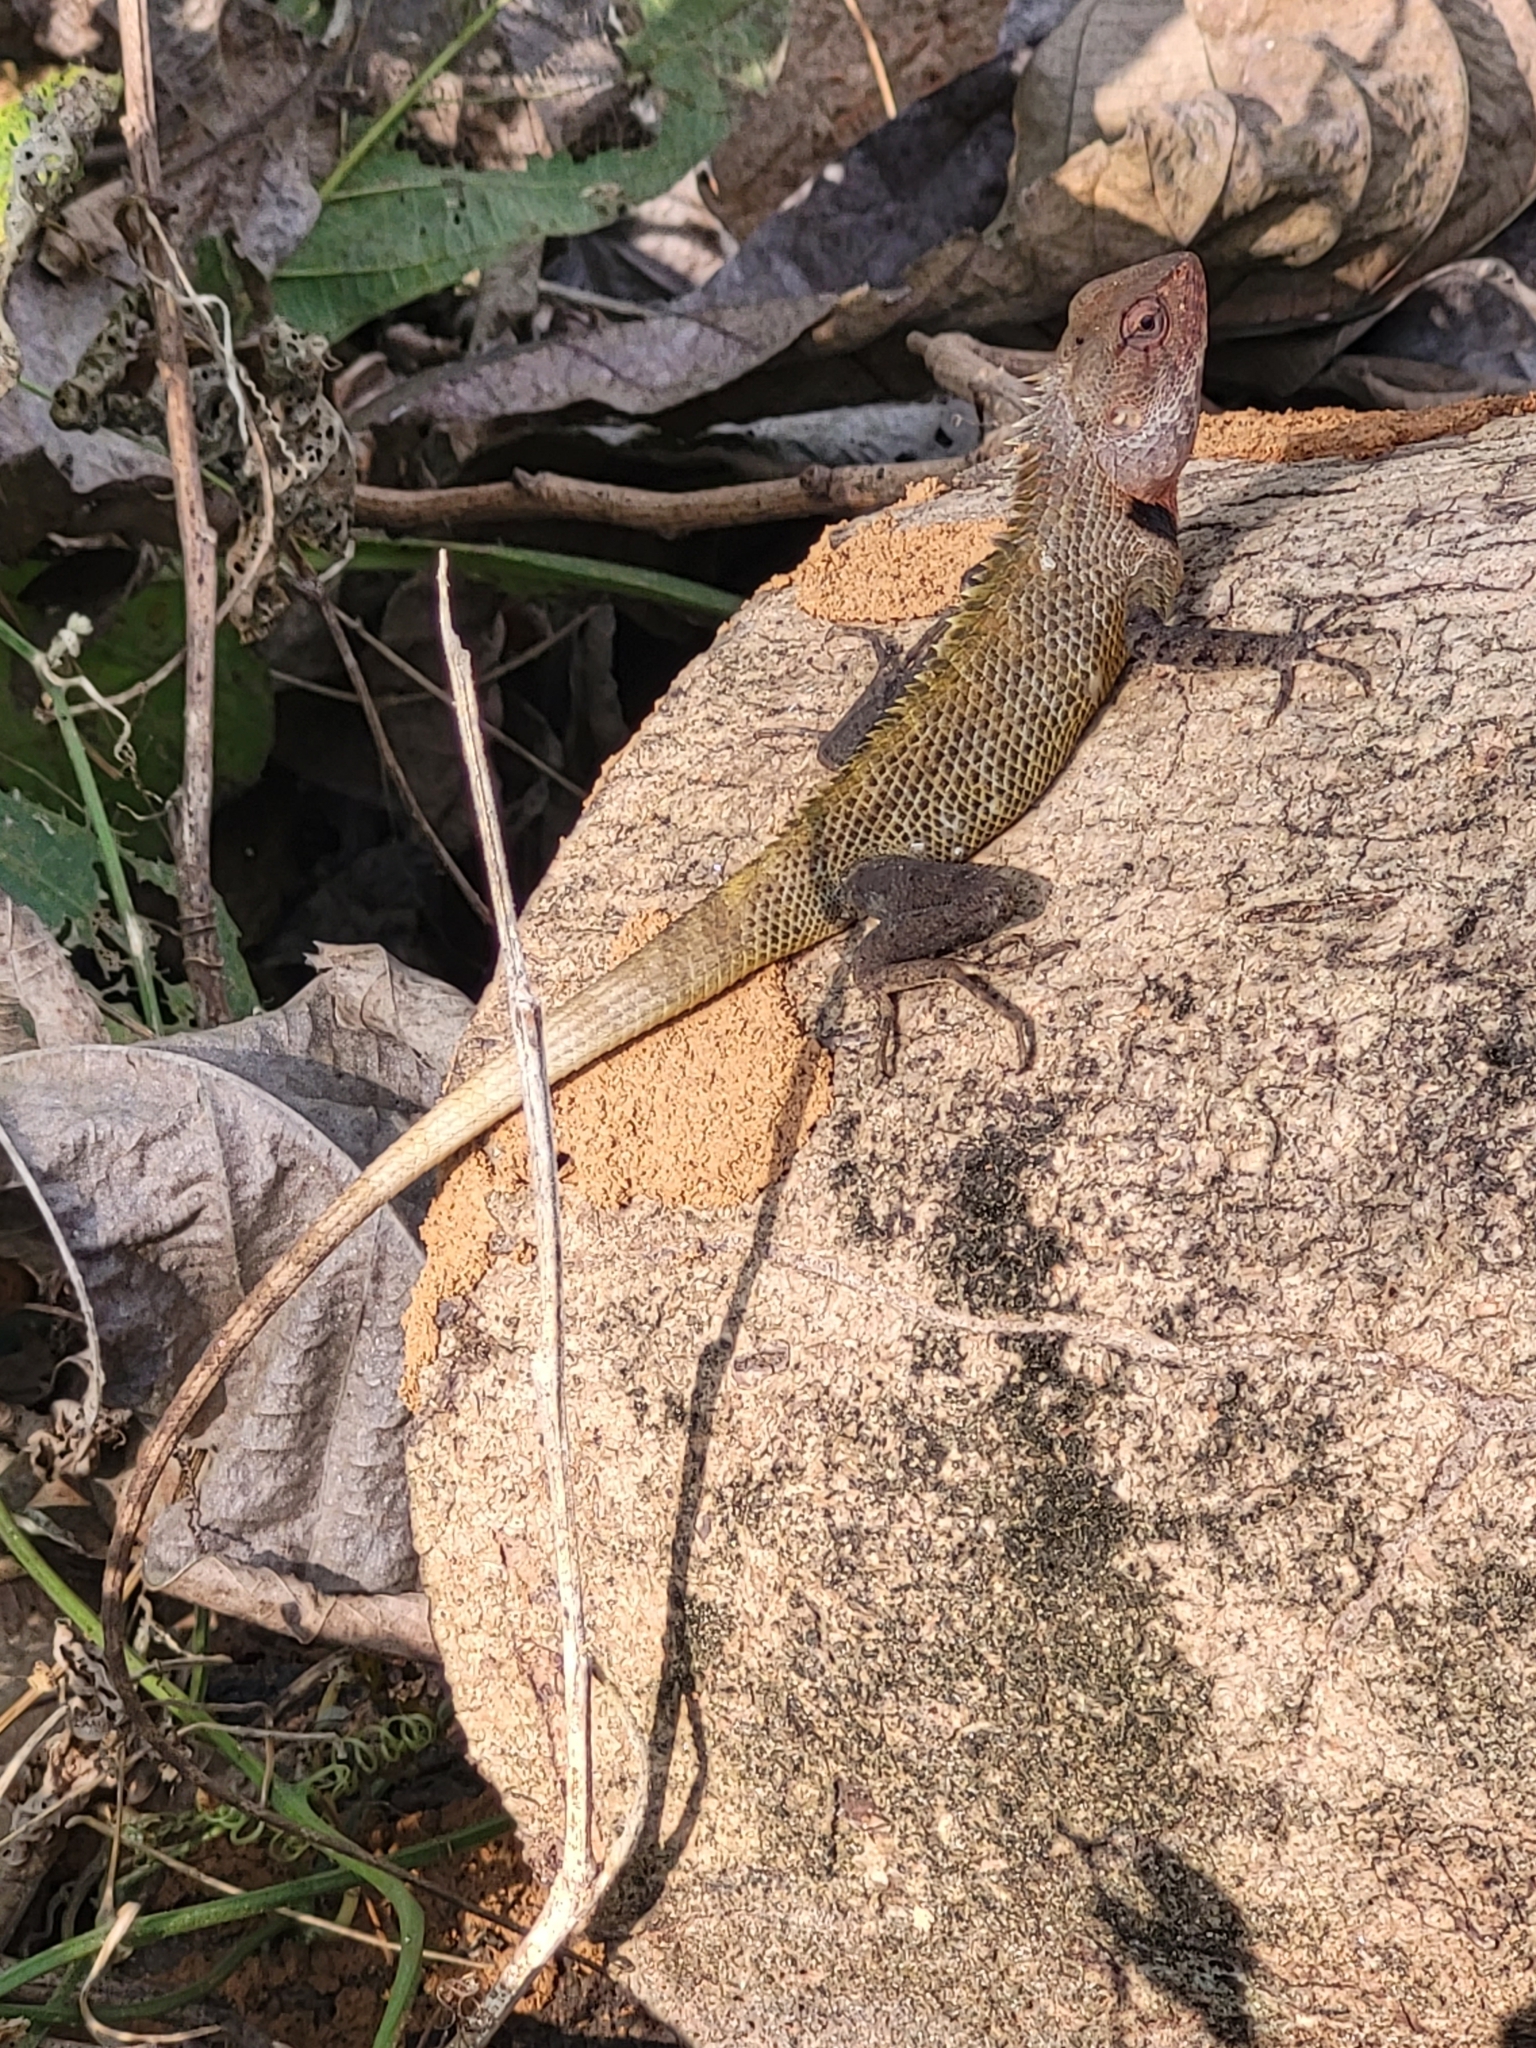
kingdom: Animalia
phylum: Chordata
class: Squamata
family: Agamidae
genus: Calotes
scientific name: Calotes versicolor
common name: Oriental garden lizard
